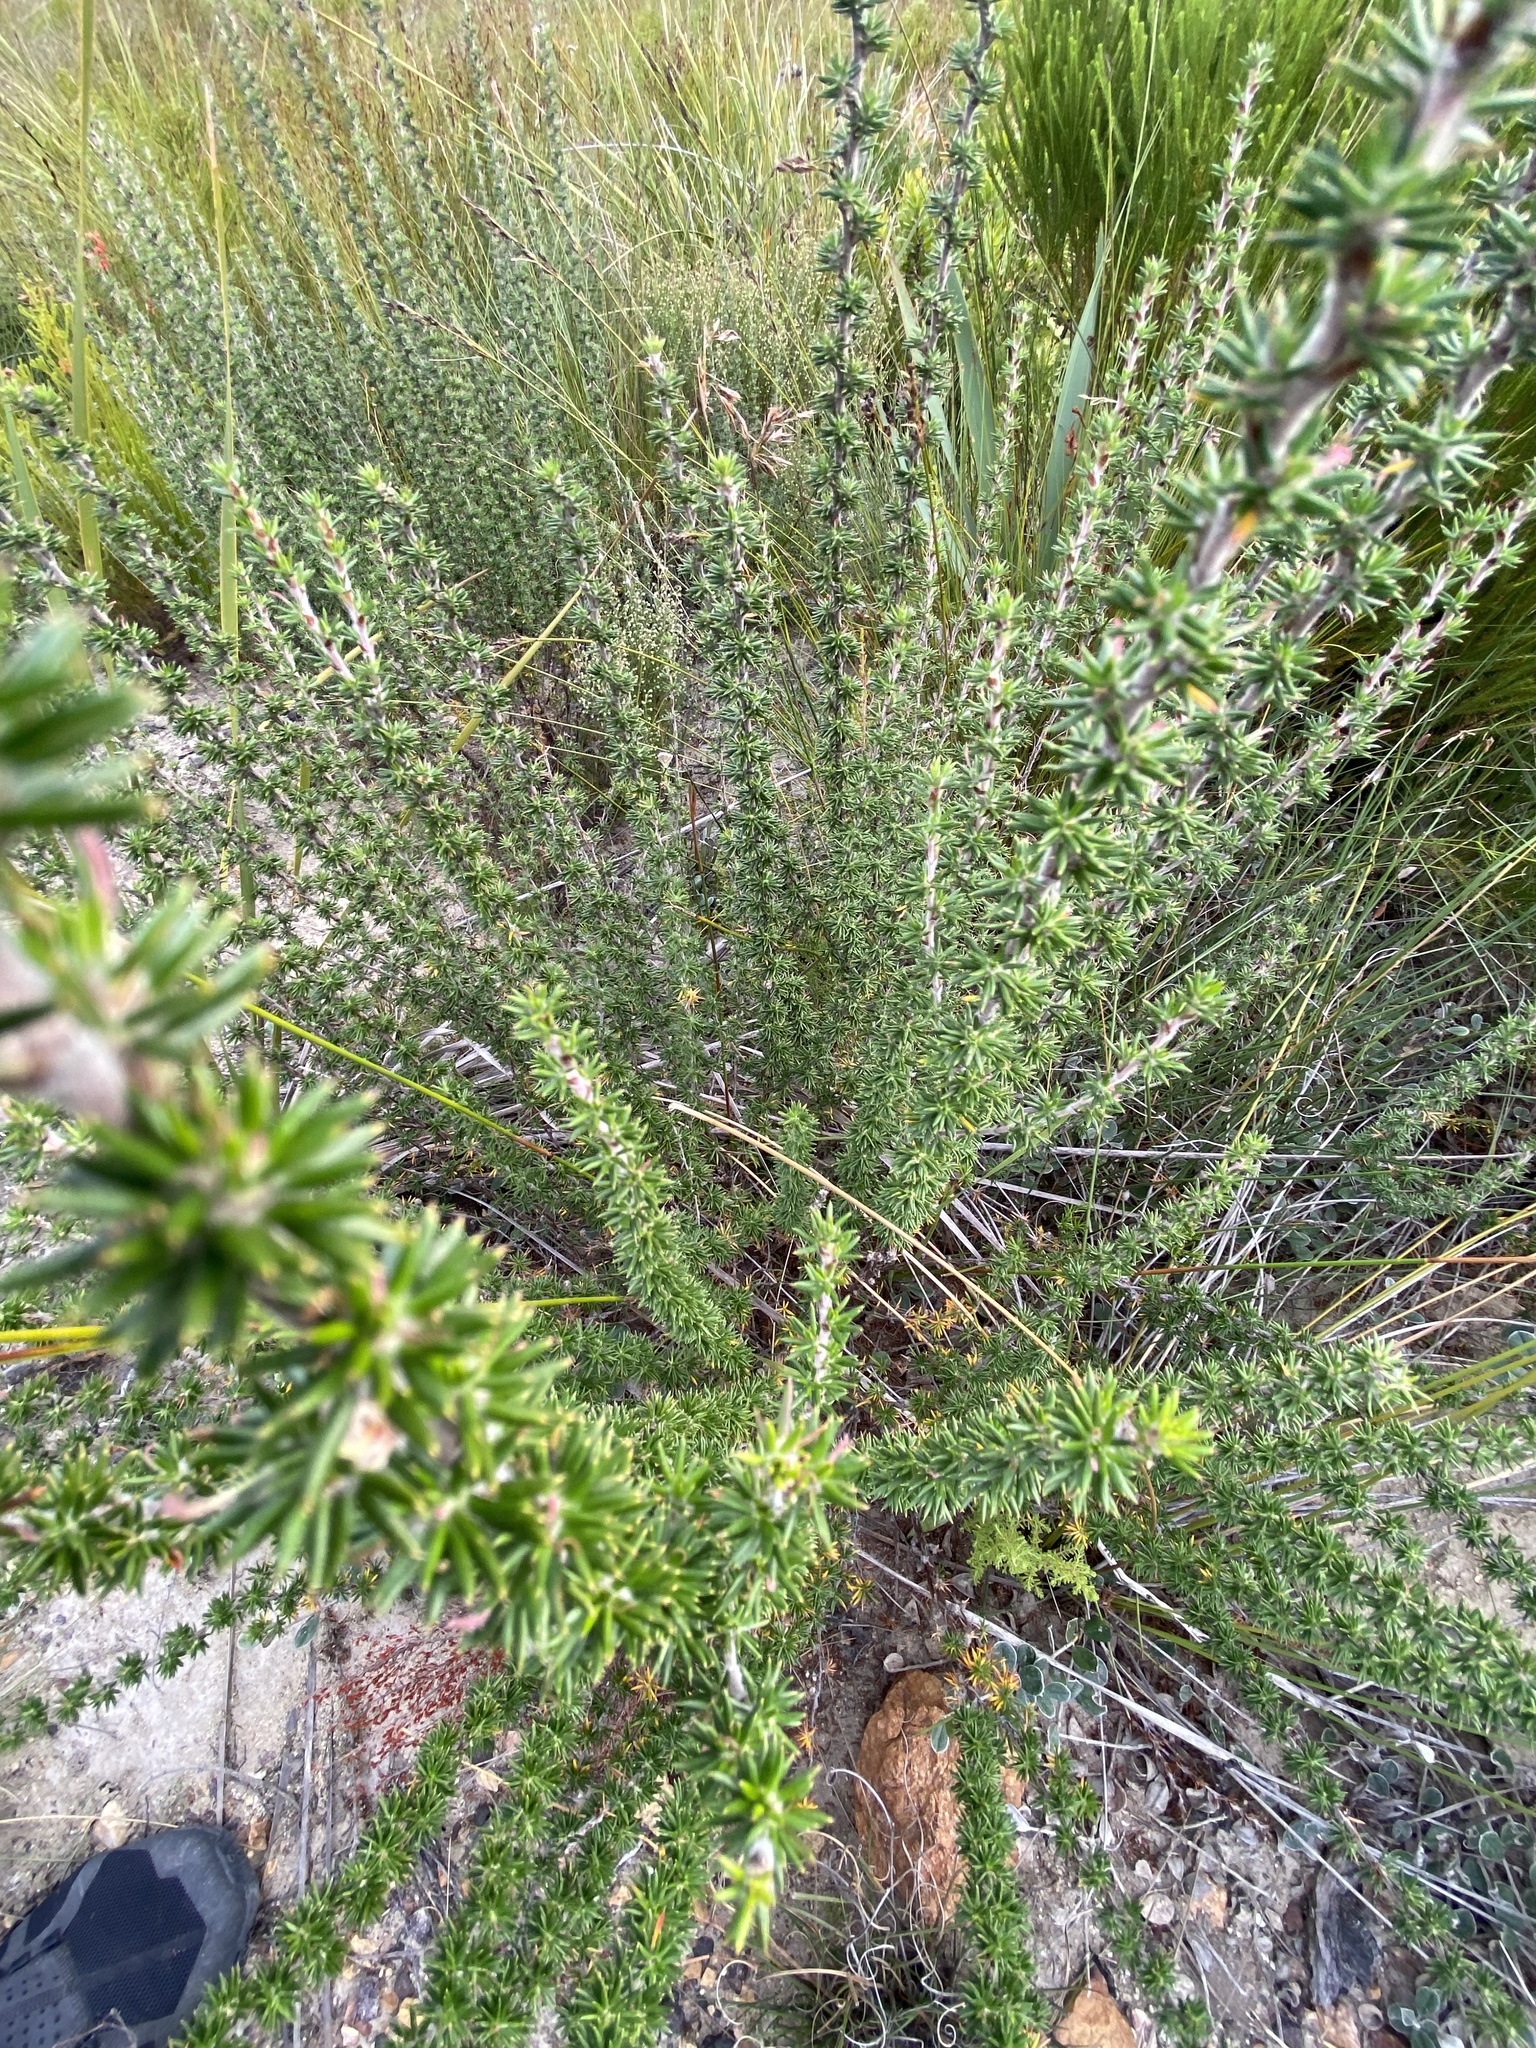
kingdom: Plantae
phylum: Tracheophyta
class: Magnoliopsida
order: Rosales
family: Rosaceae
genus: Cliffortia
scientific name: Cliffortia stricta
